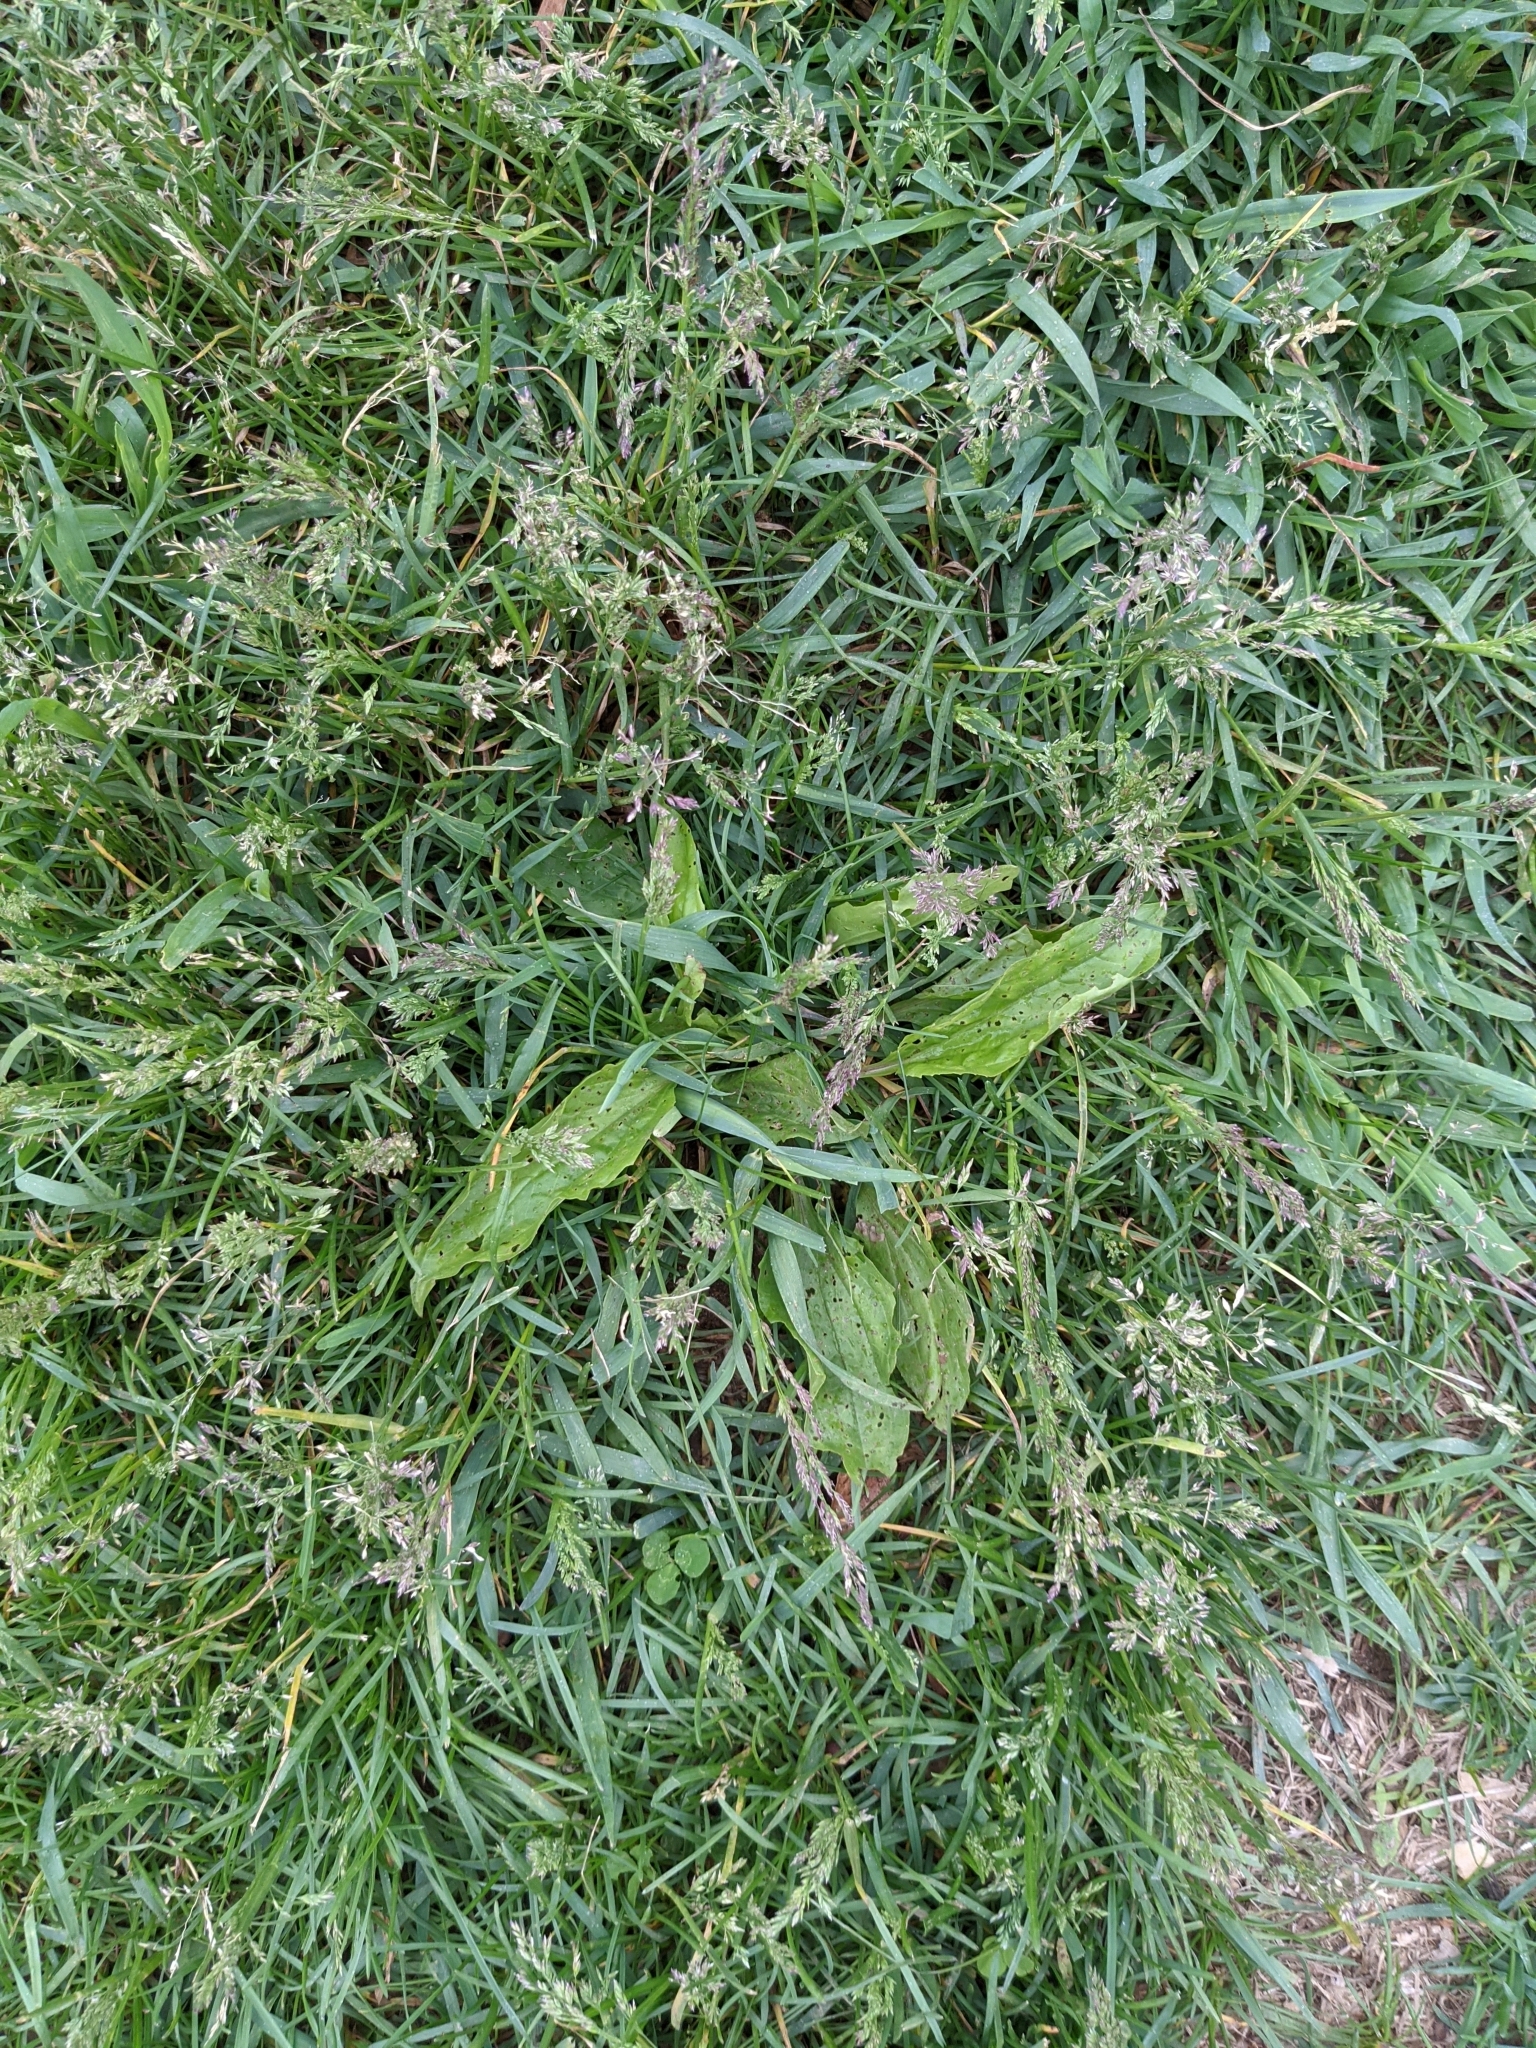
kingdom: Plantae
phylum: Tracheophyta
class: Magnoliopsida
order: Lamiales
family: Plantaginaceae
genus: Plantago
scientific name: Plantago rugelii
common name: American plantain
